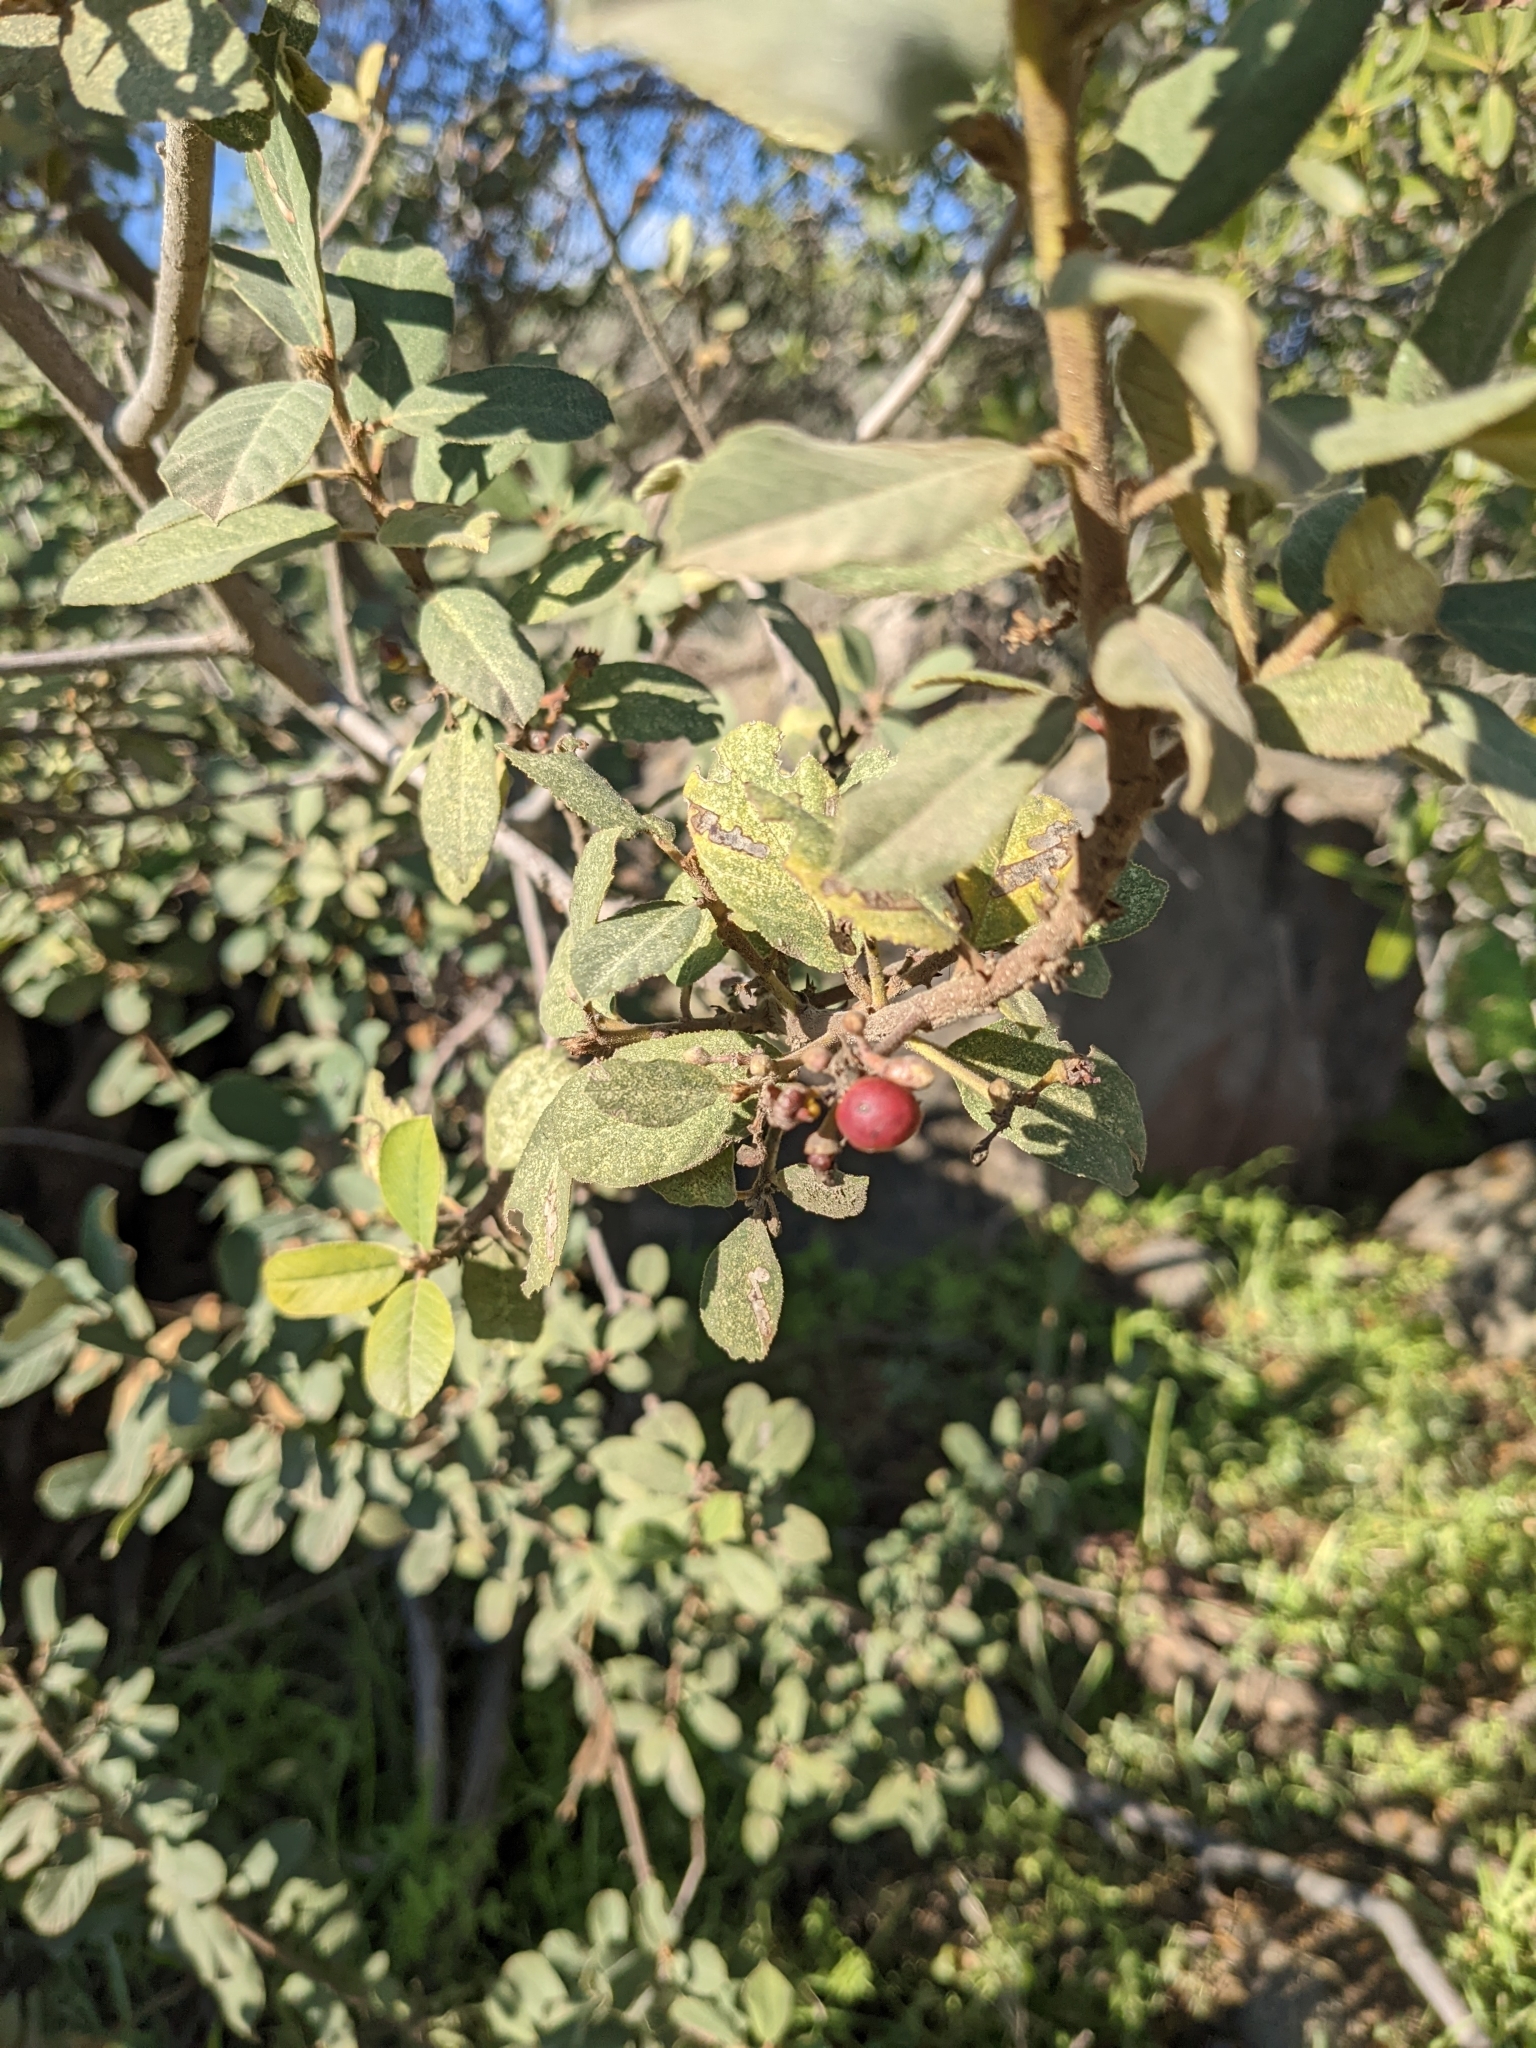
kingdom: Plantae
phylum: Tracheophyta
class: Magnoliopsida
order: Rosales
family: Rhamnaceae
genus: Frangula
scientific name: Frangula californica
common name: California buckthorn
